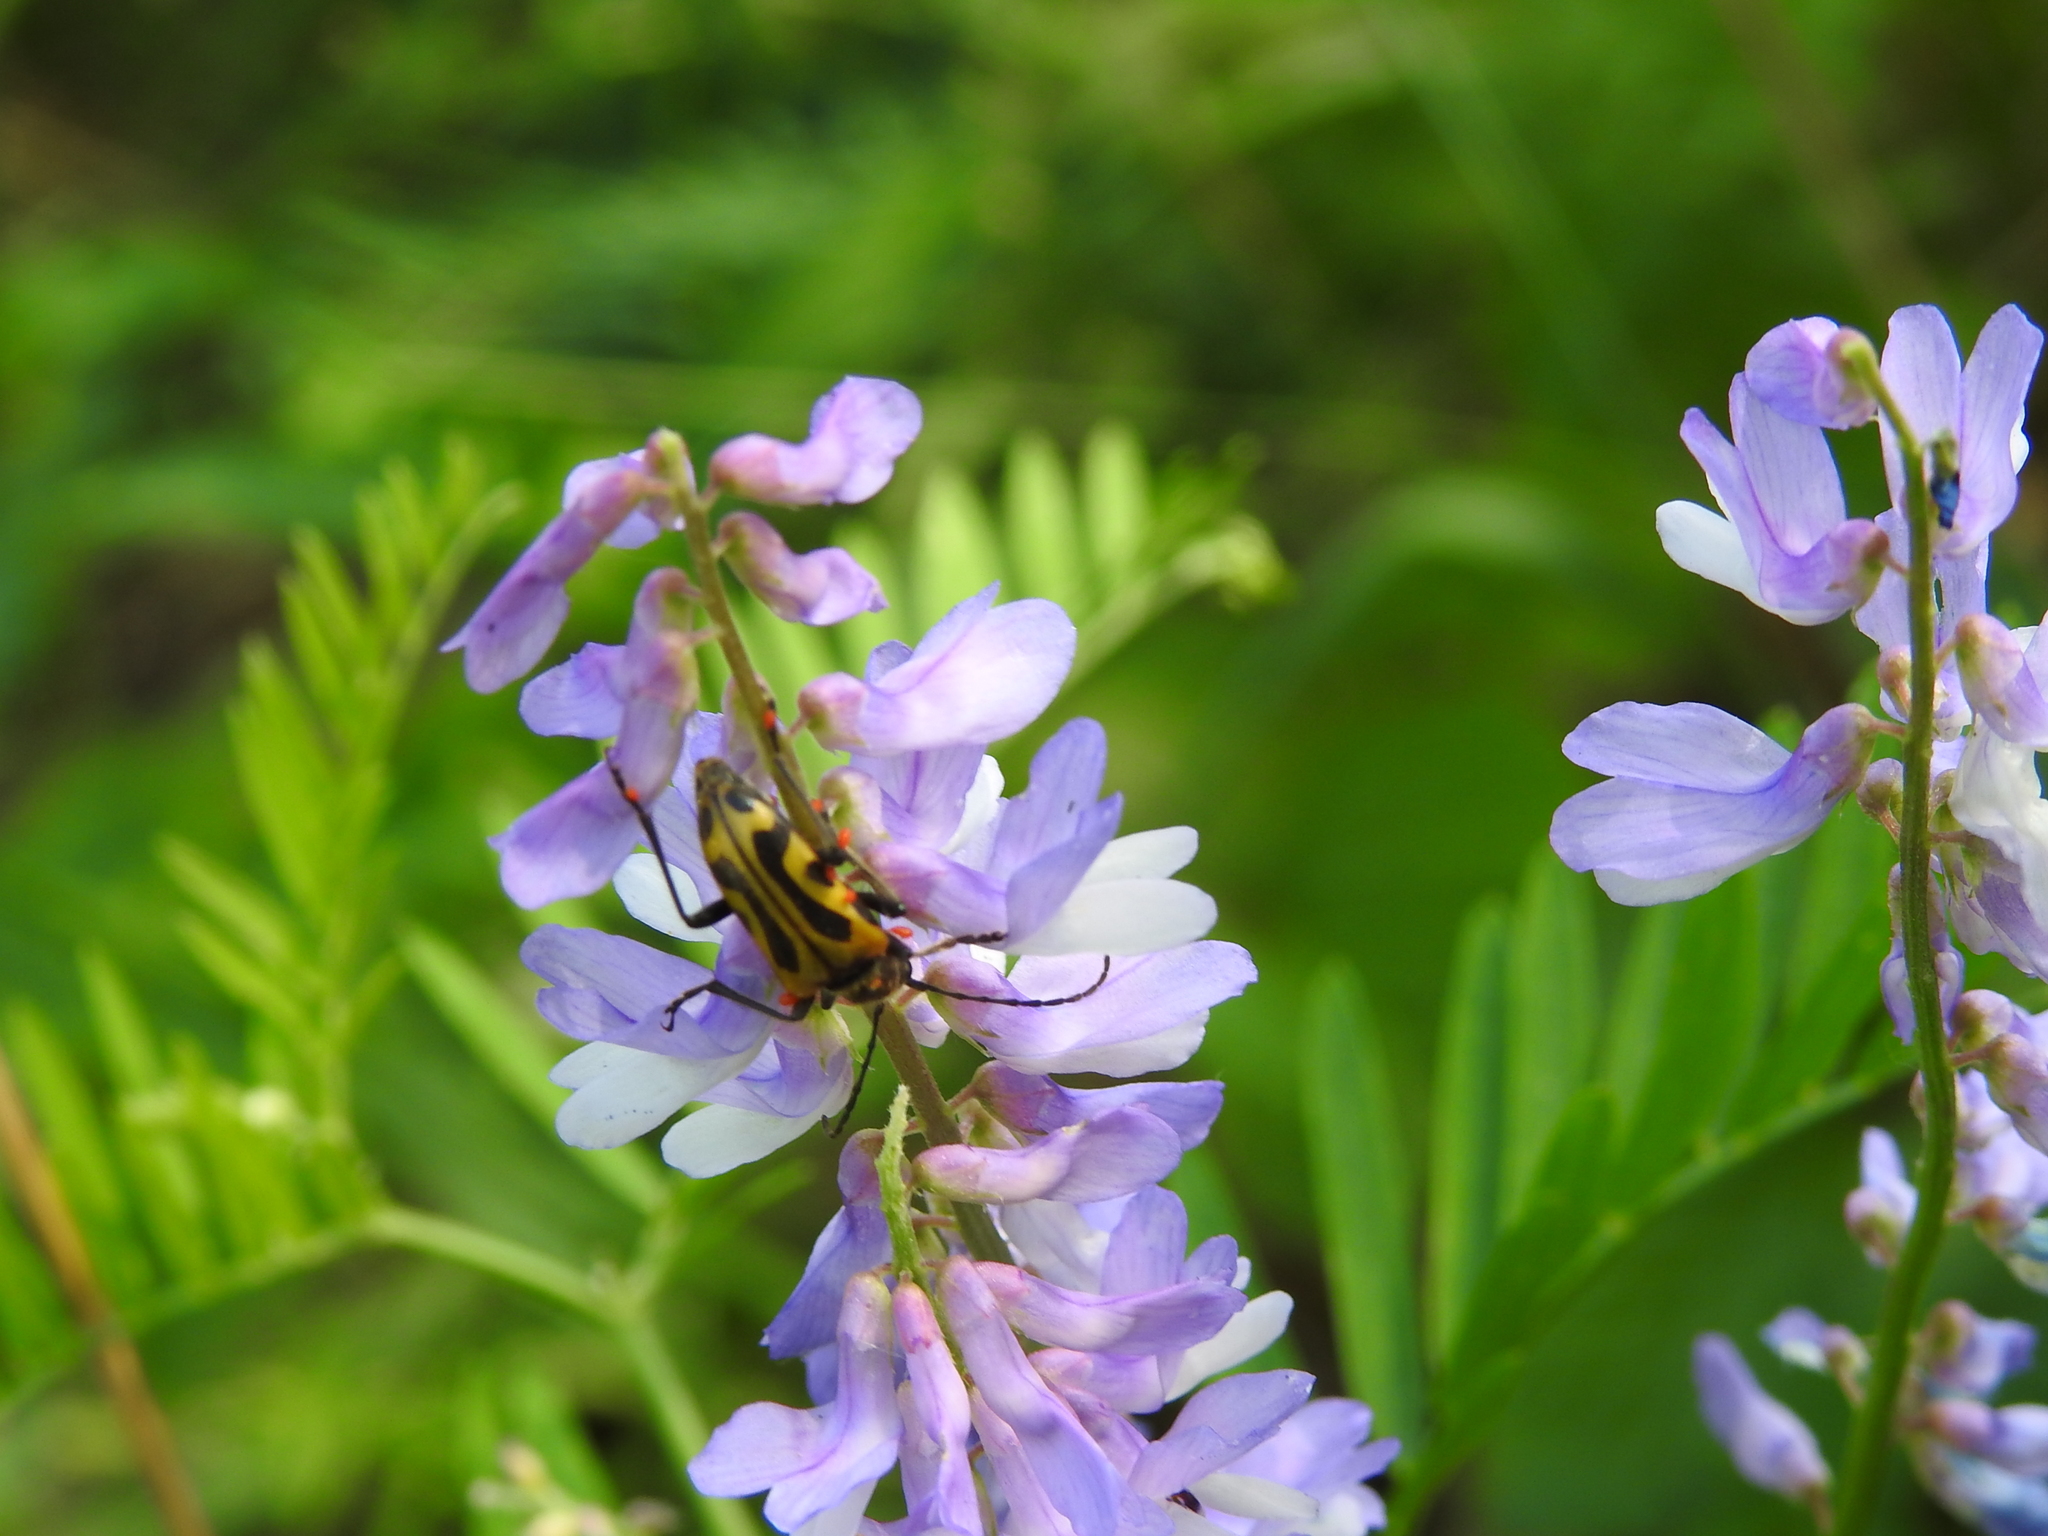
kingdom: Animalia
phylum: Arthropoda
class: Insecta
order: Coleoptera
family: Cerambycidae
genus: Brachyta
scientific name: Brachyta interrogationis
